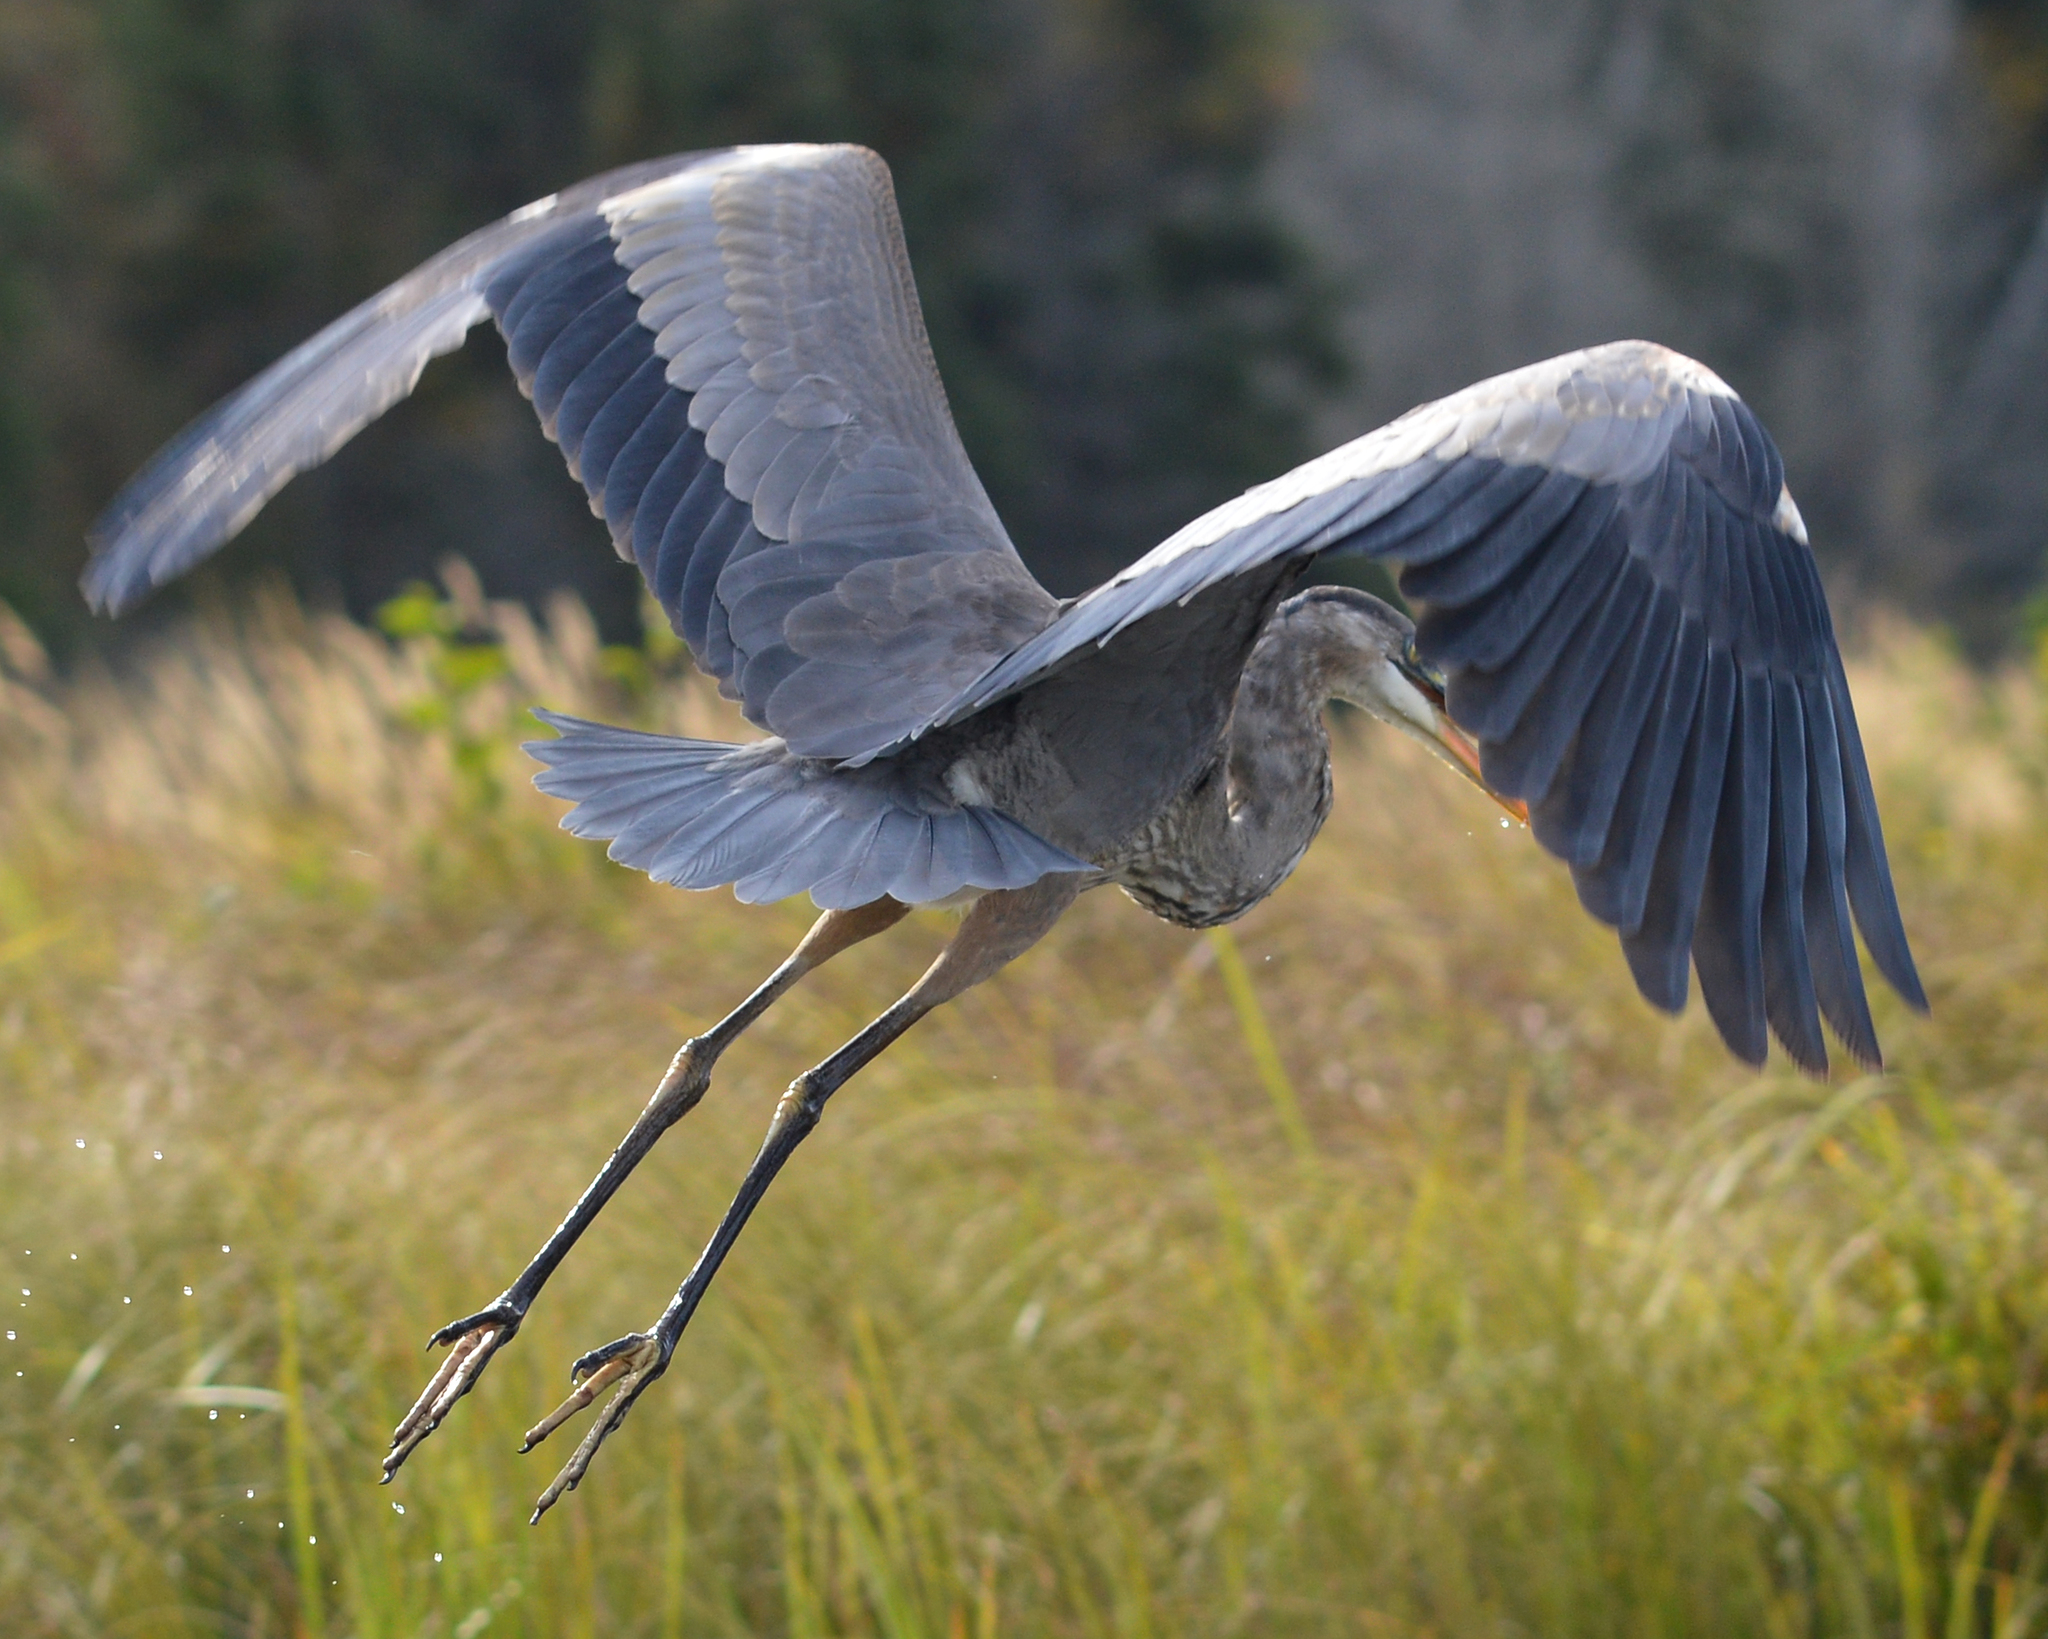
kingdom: Animalia
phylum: Chordata
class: Aves
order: Pelecaniformes
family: Ardeidae
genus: Ardea
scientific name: Ardea herodias
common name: Great blue heron
